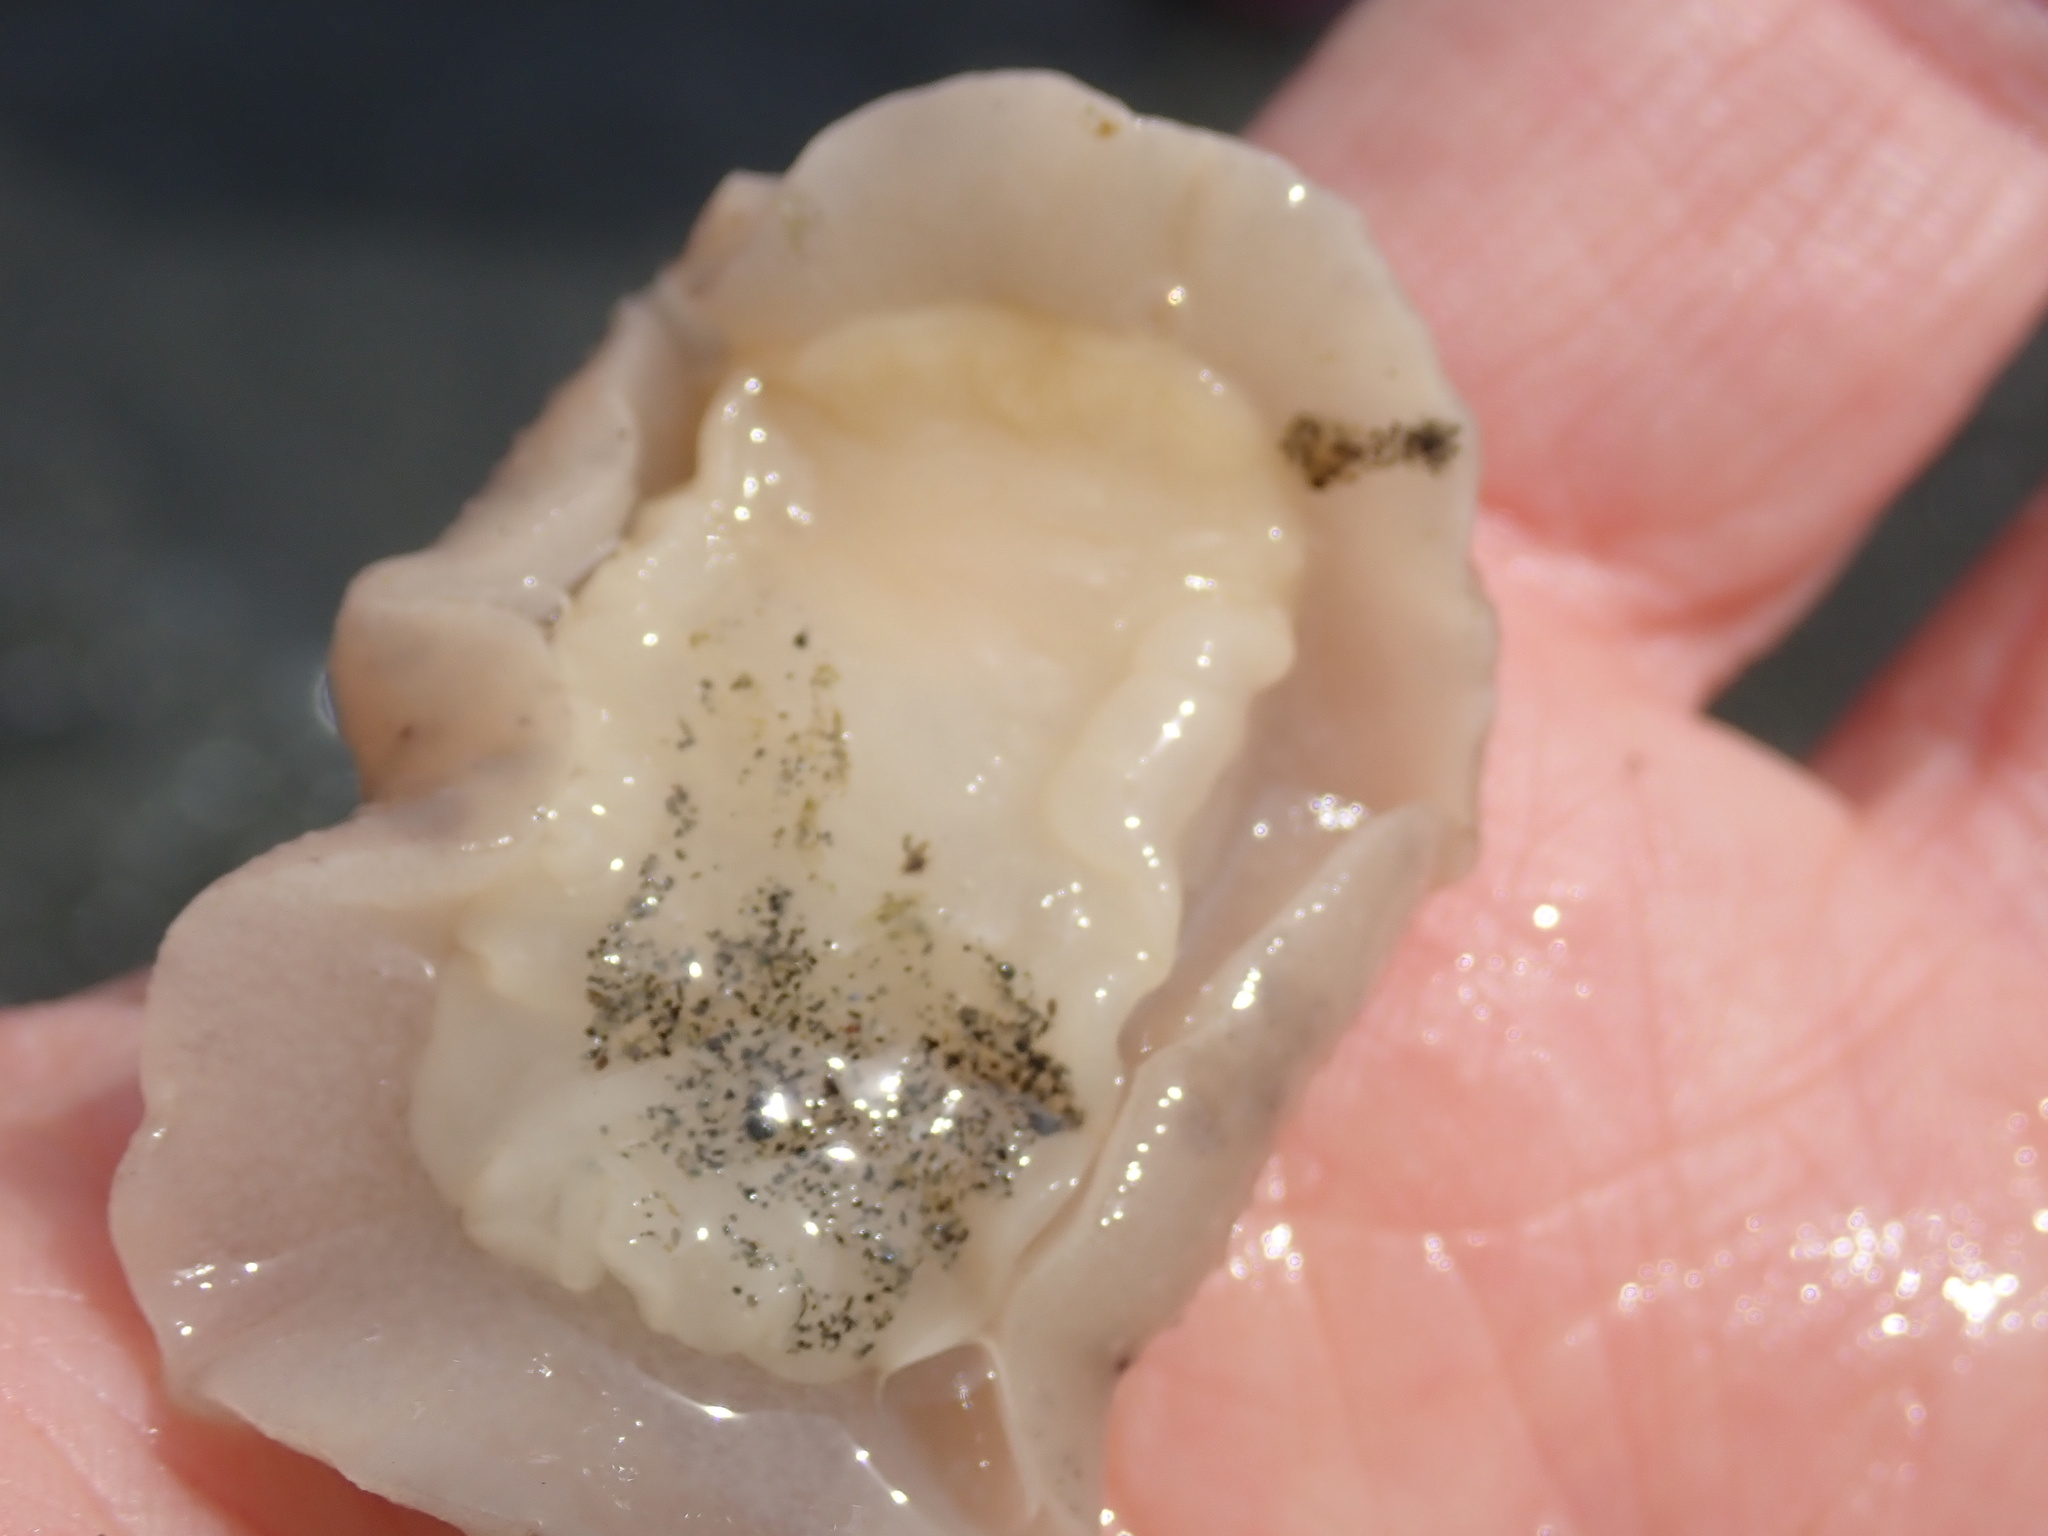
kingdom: Animalia
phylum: Mollusca
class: Gastropoda
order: Nudibranchia
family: Discodorididae
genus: Geitodoris
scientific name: Geitodoris heathi
